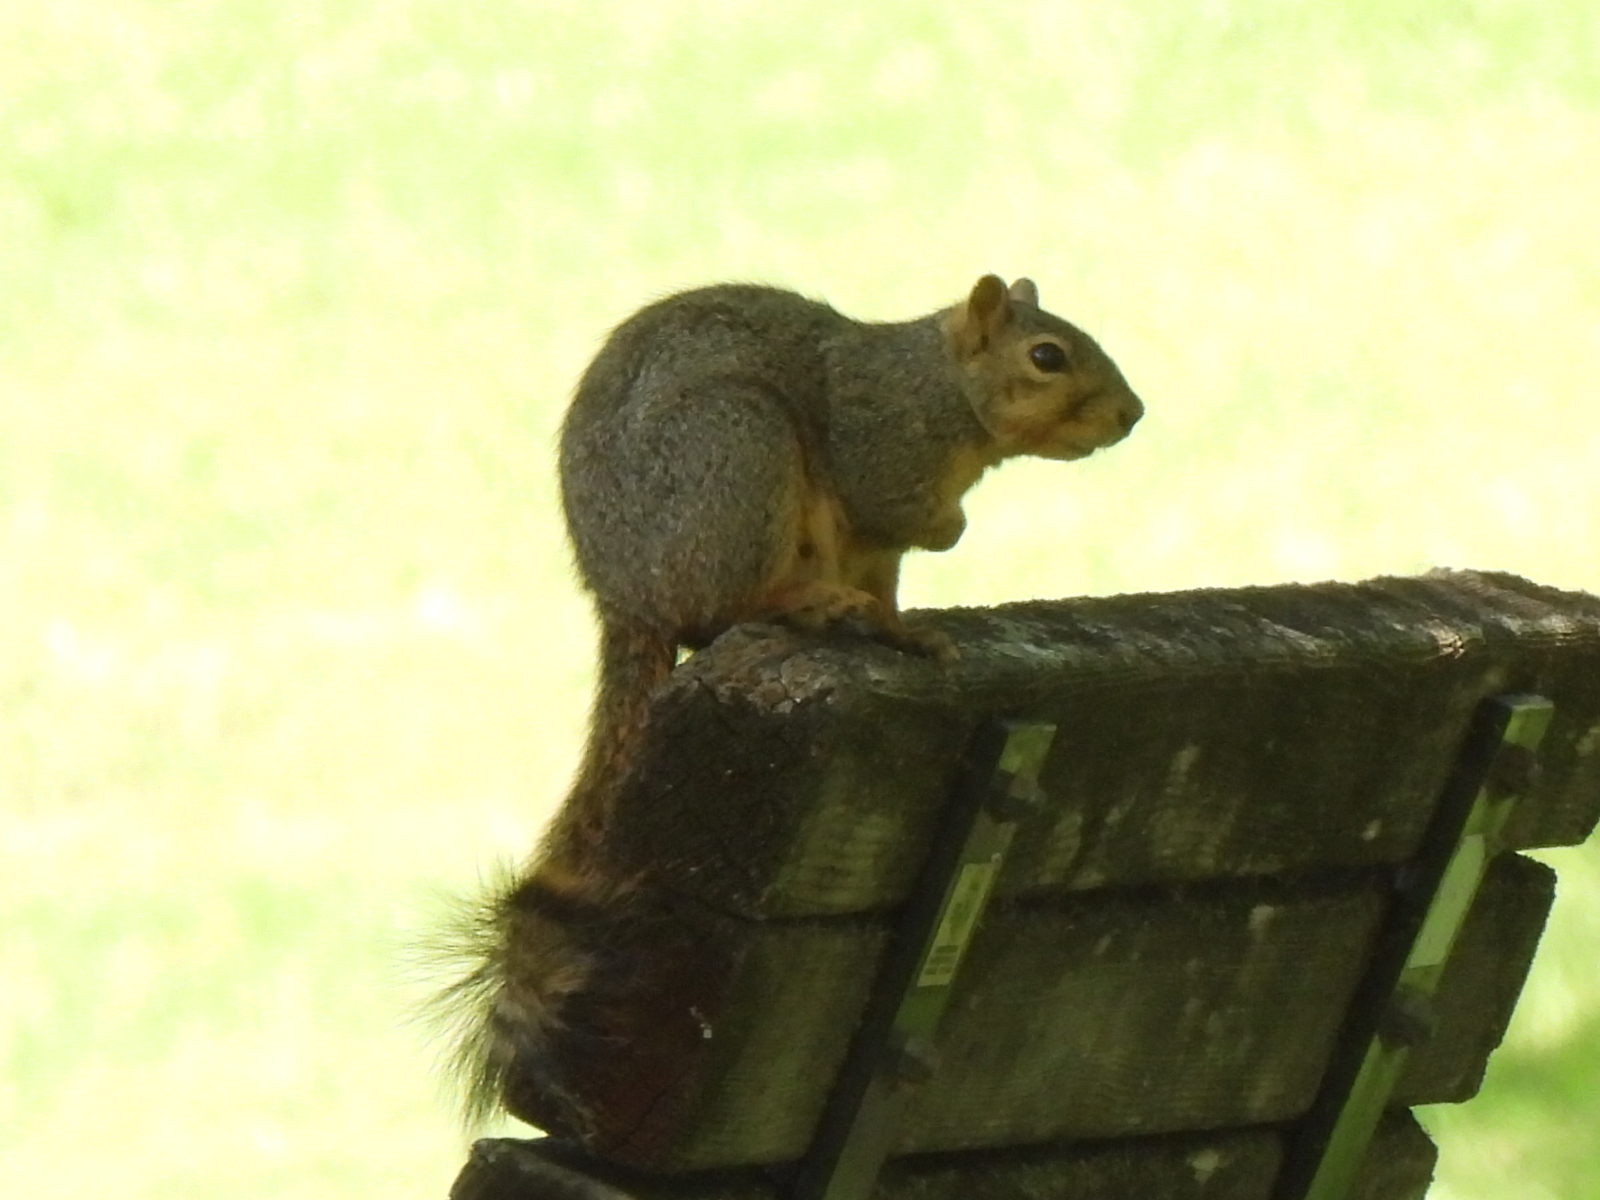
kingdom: Animalia
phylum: Chordata
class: Mammalia
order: Rodentia
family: Sciuridae
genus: Sciurus
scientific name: Sciurus niger
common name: Fox squirrel
